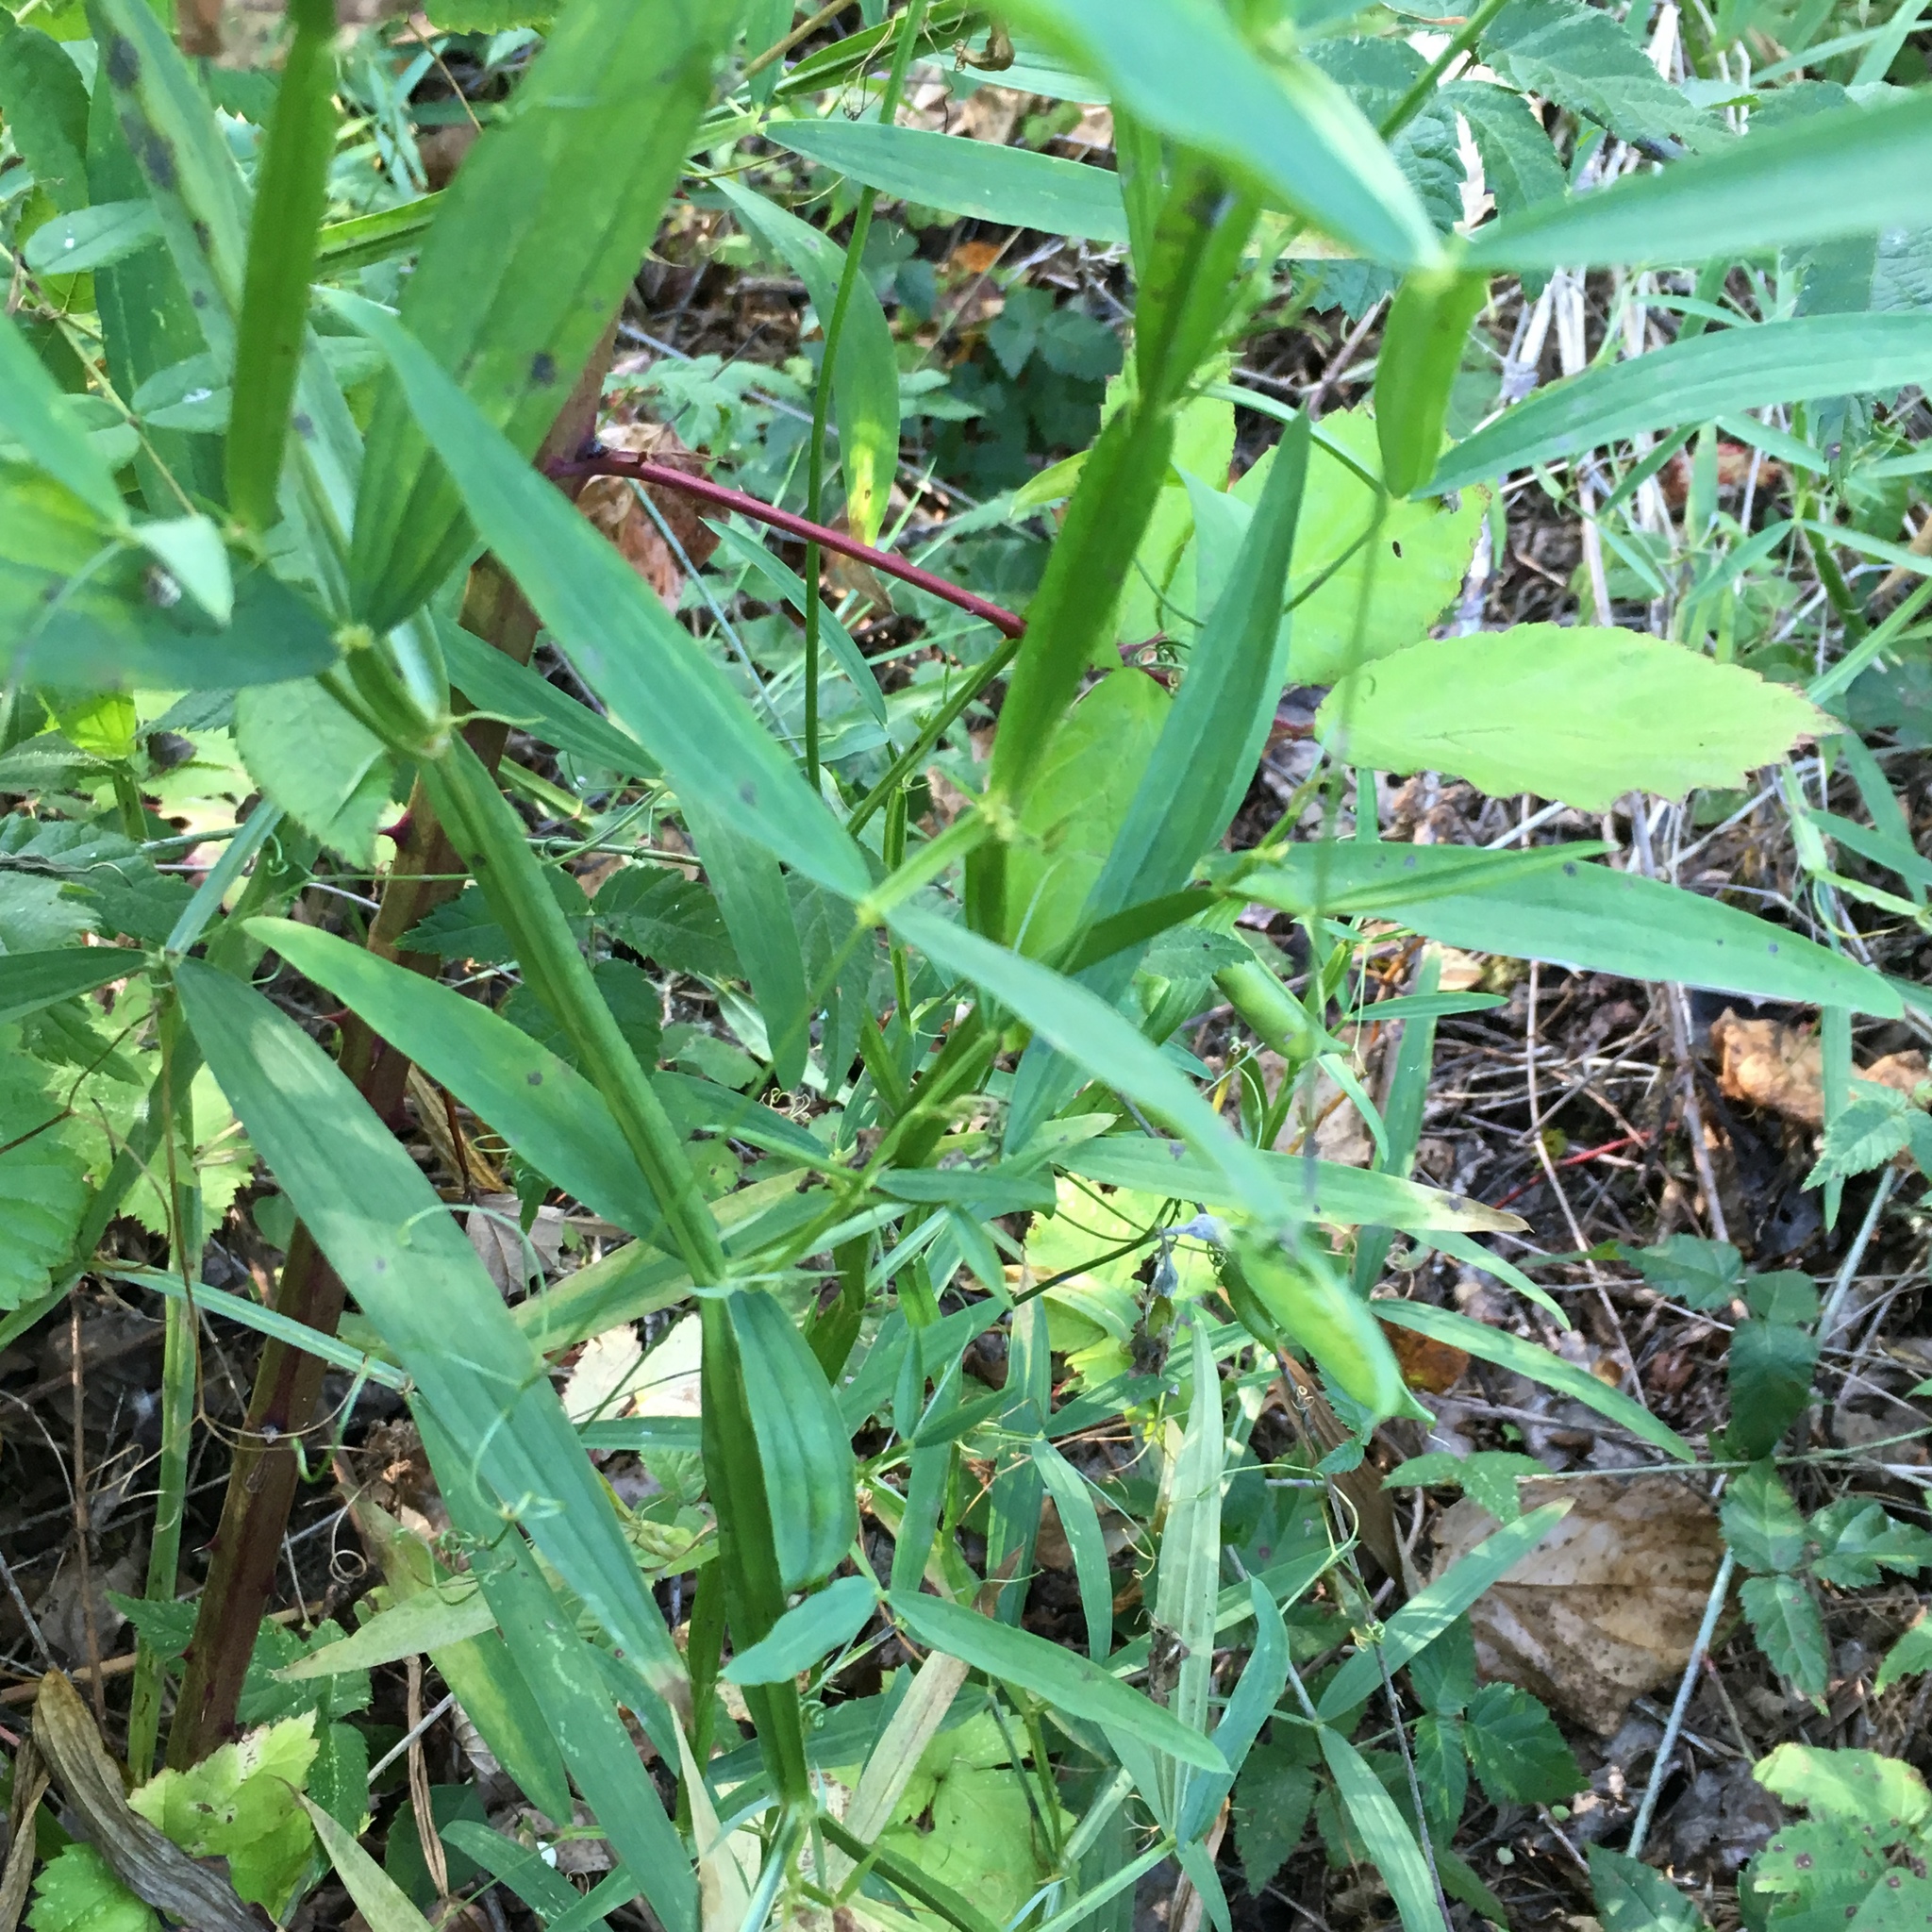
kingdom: Plantae
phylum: Tracheophyta
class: Magnoliopsida
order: Fabales
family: Fabaceae
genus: Lathyrus
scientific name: Lathyrus sylvestris
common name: Flat pea
